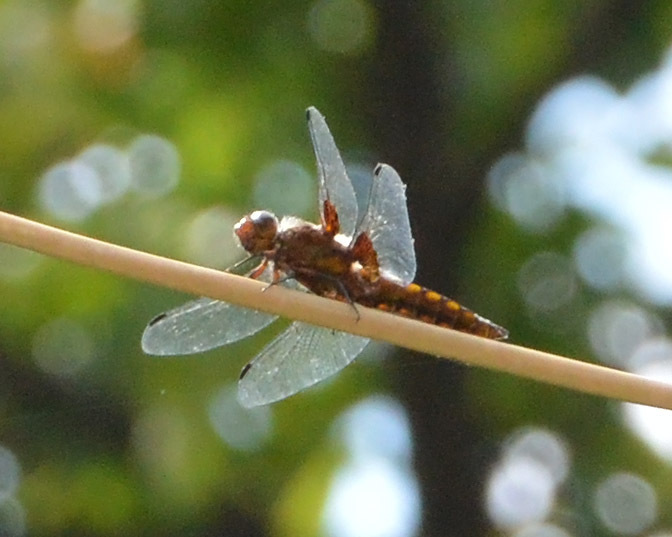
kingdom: Animalia
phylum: Arthropoda
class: Insecta
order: Odonata
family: Libellulidae
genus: Libellula
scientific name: Libellula depressa
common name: Broad-bodied chaser
